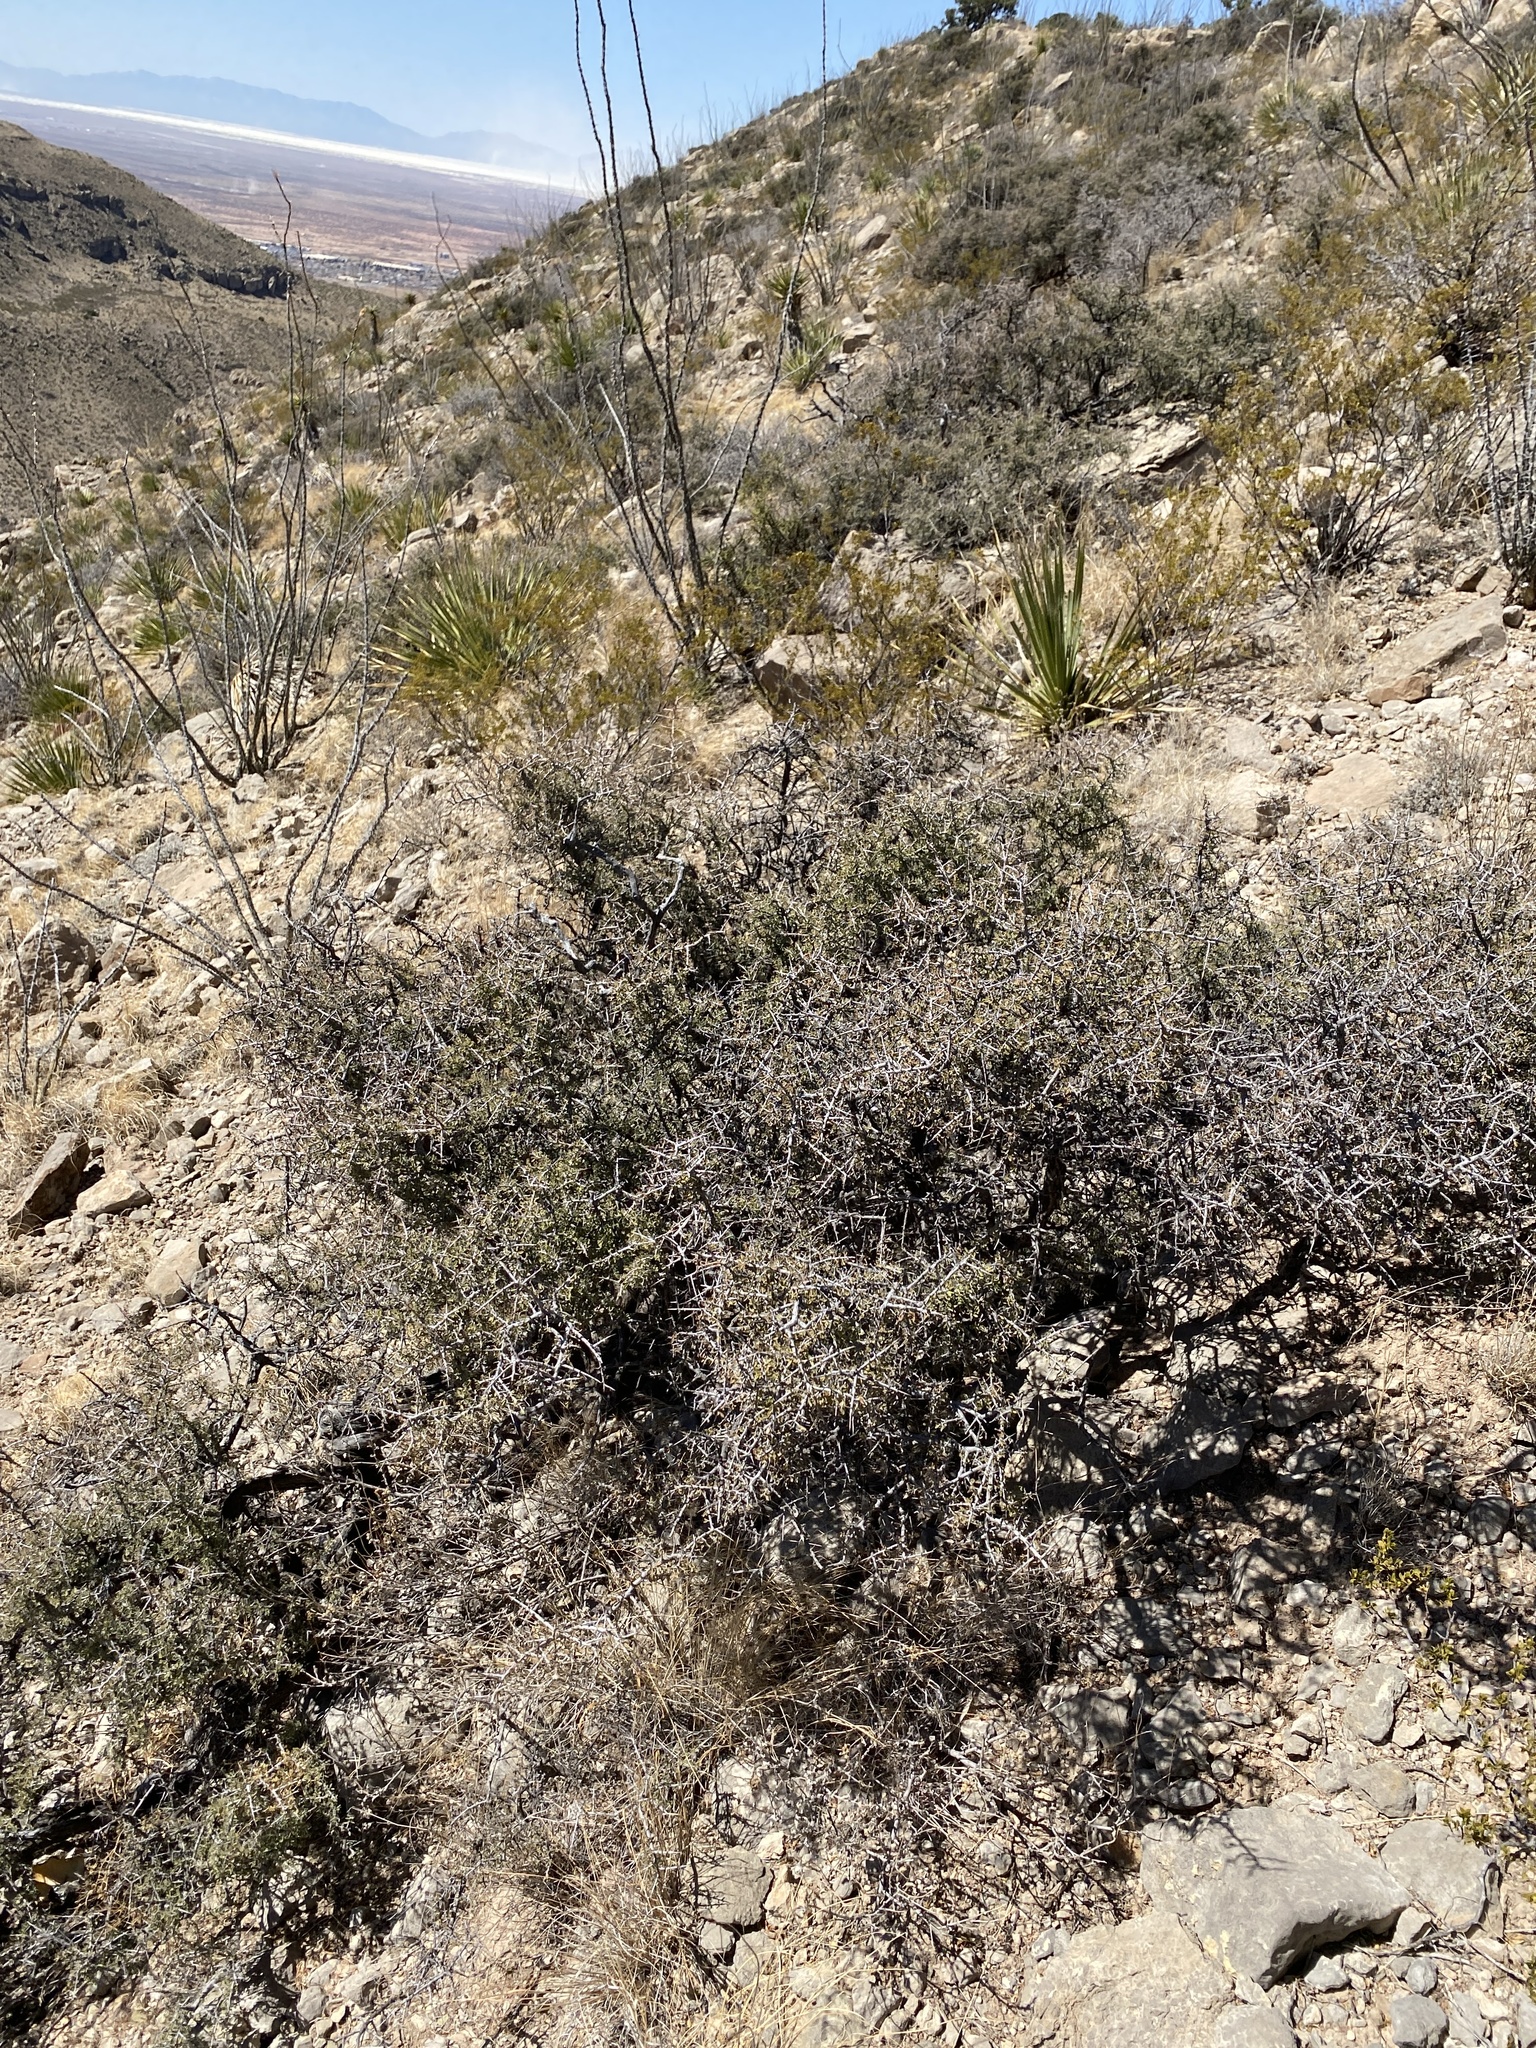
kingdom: Plantae
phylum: Tracheophyta
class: Magnoliopsida
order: Rosales
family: Rhamnaceae
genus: Condalia
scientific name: Condalia warnockii
